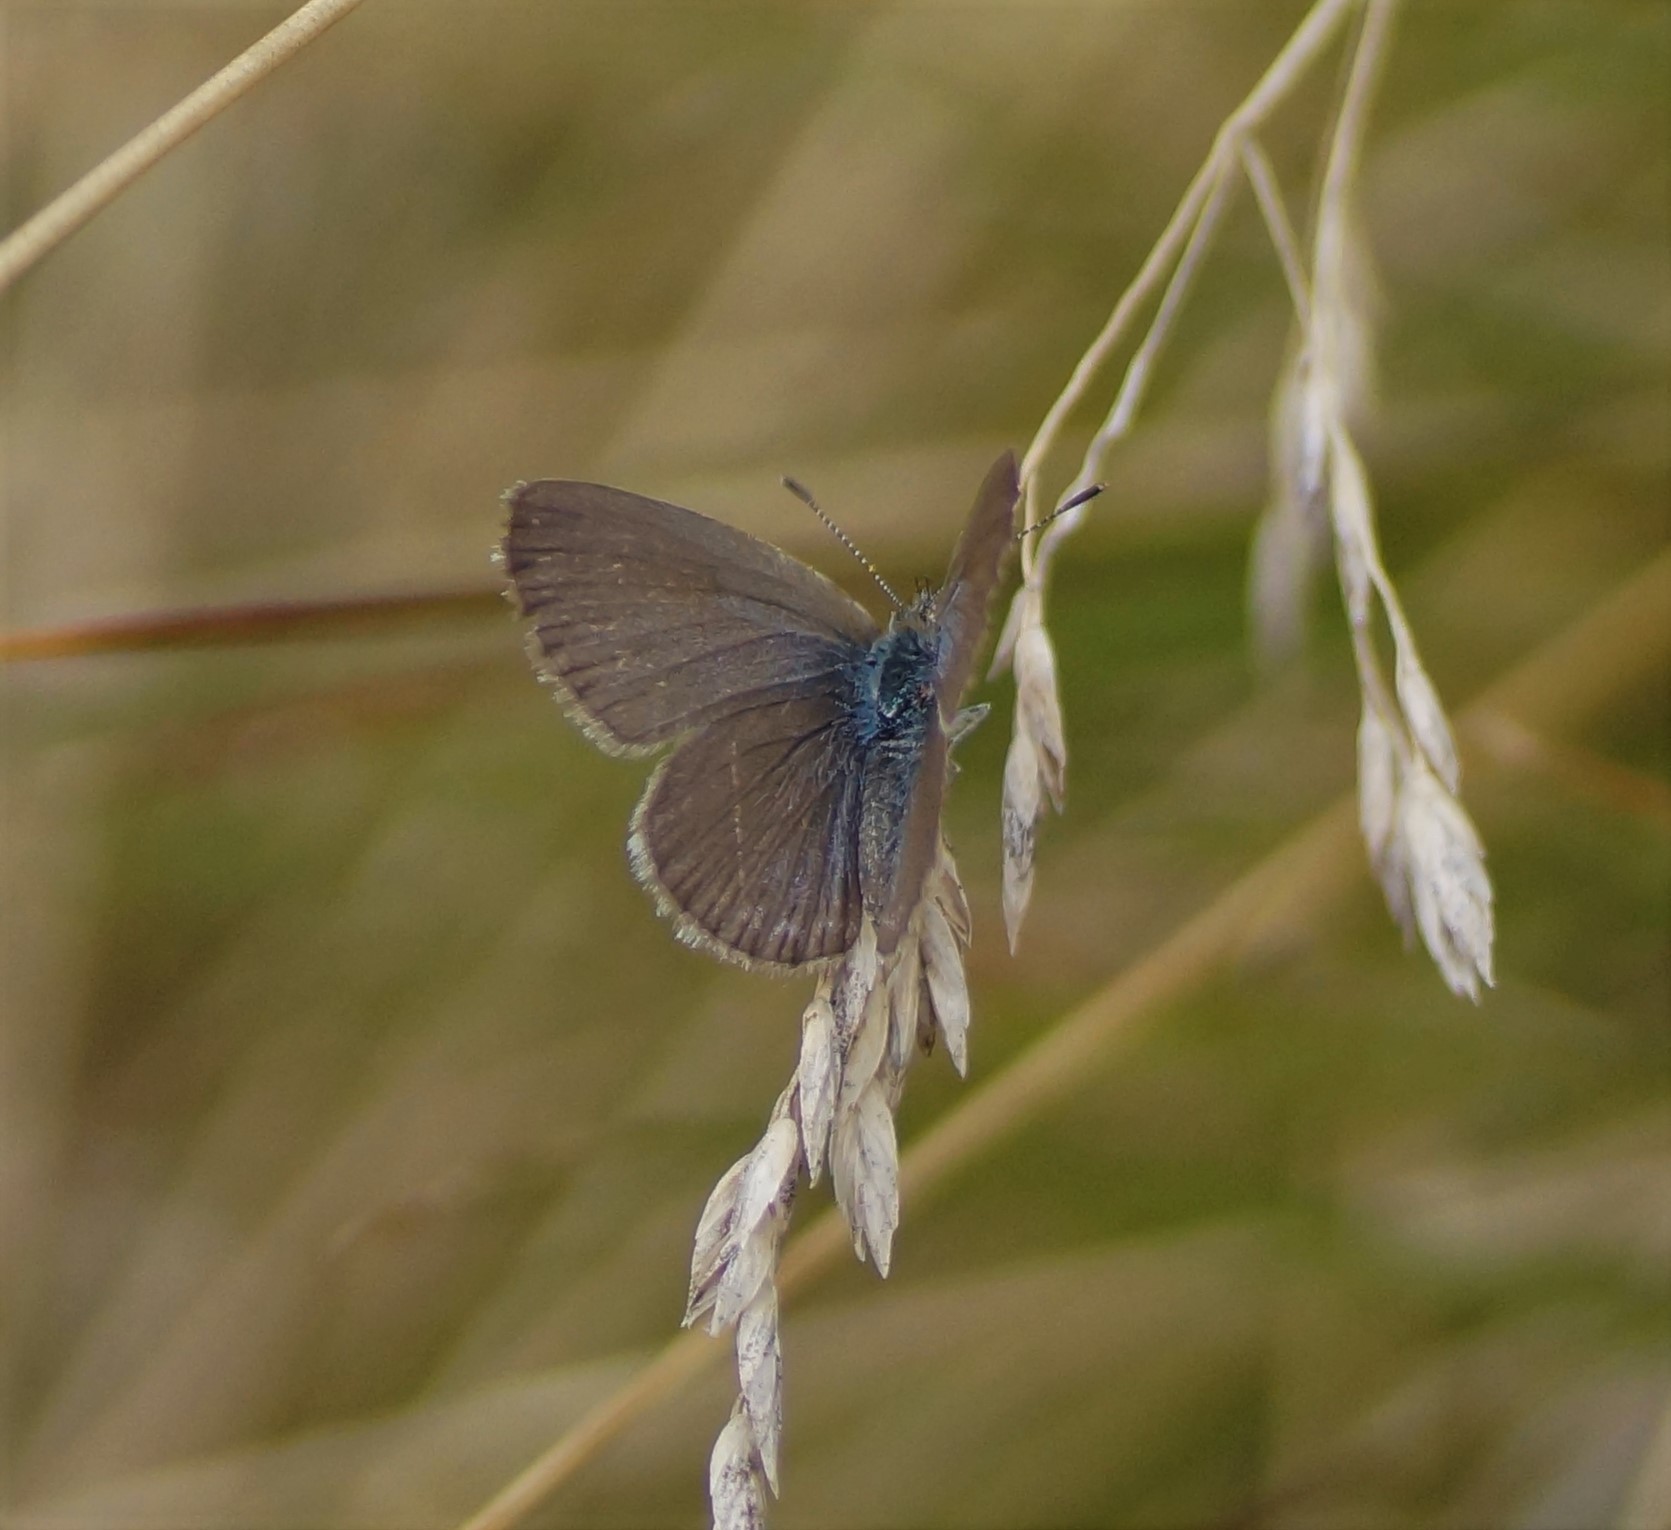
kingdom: Animalia
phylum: Arthropoda
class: Insecta
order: Lepidoptera
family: Lycaenidae
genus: Zizina
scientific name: Zizina labradus
